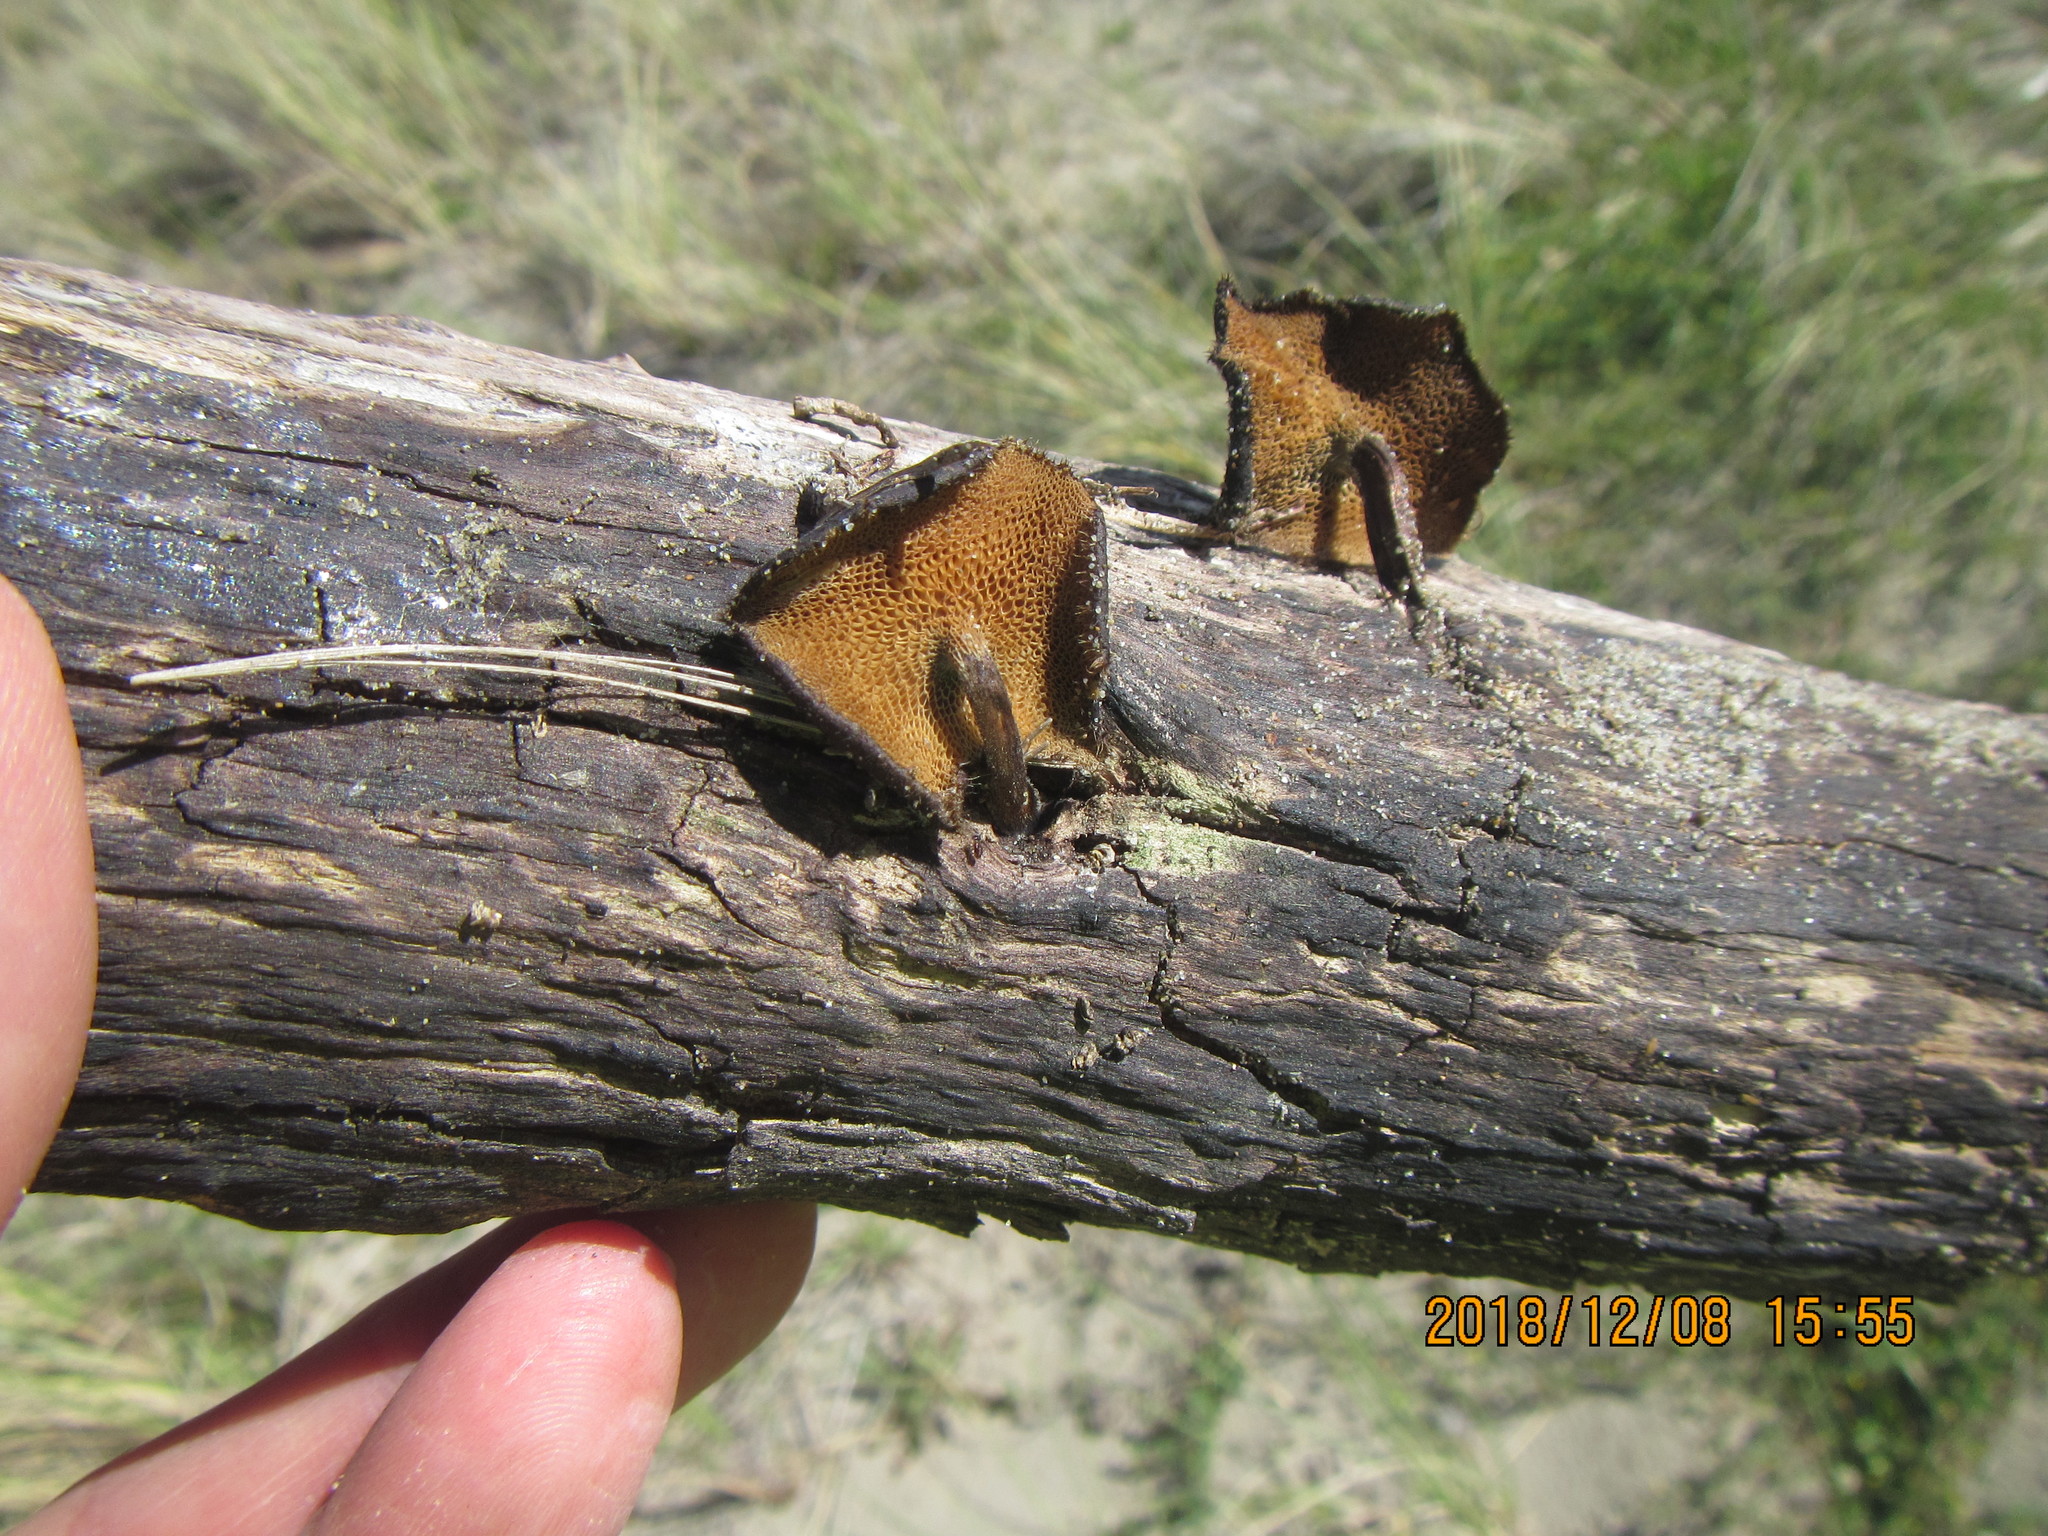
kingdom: Fungi
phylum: Basidiomycota
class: Agaricomycetes
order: Polyporales
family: Polyporaceae
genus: Lentinus
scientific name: Lentinus arcularius
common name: Spring polypore
